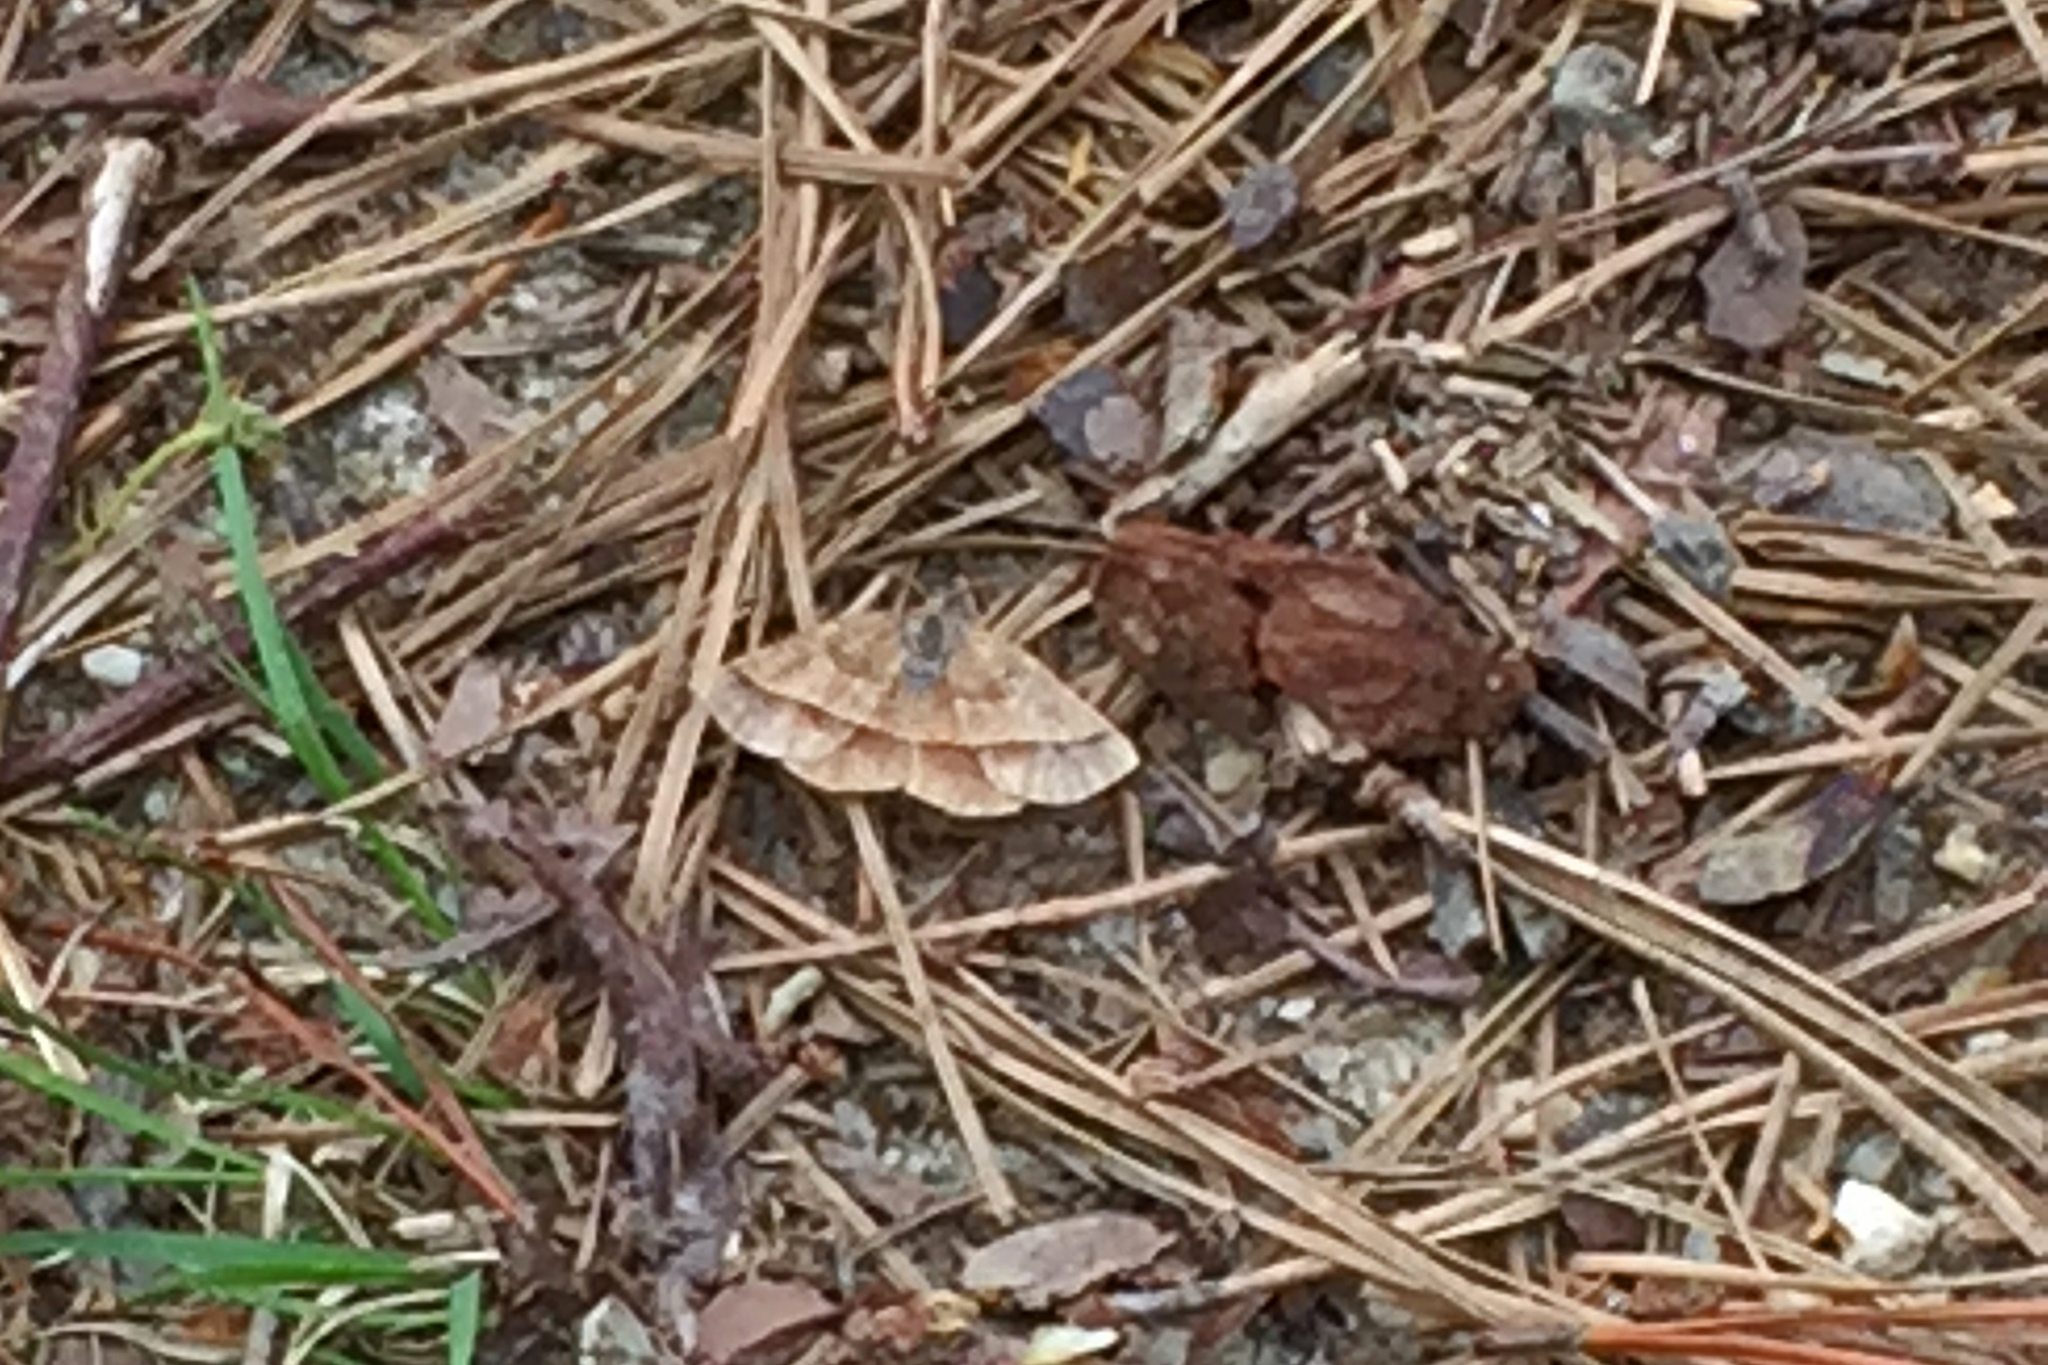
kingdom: Animalia
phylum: Arthropoda
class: Insecta
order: Lepidoptera
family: Geometridae
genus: Metarranthis
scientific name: Metarranthis obfirmaria
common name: Yellow-washed metarranthis
